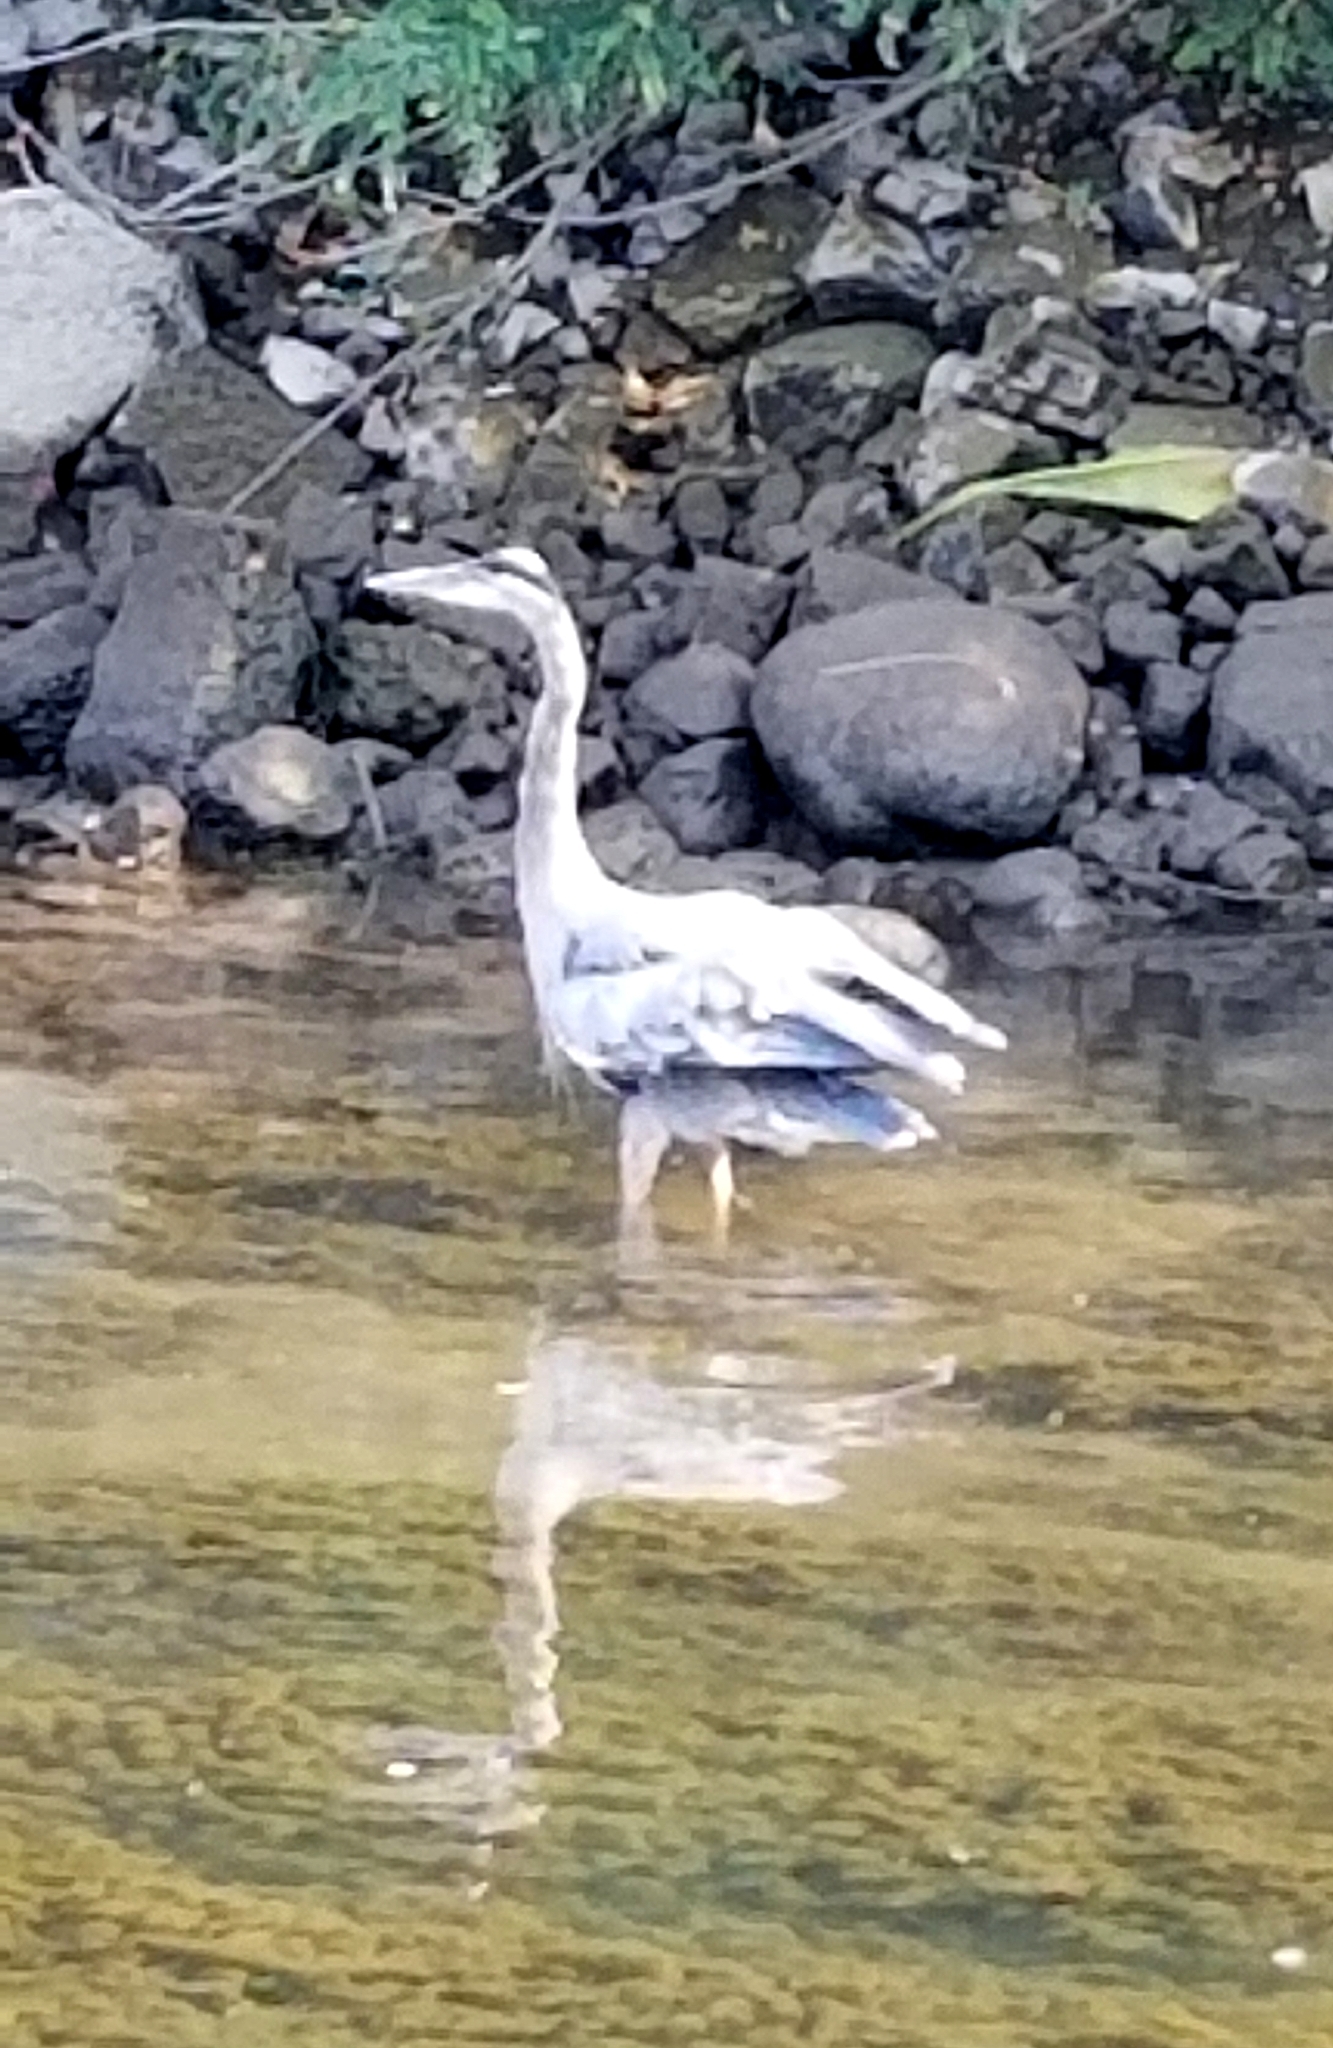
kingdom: Animalia
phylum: Chordata
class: Aves
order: Pelecaniformes
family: Ardeidae
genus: Ardea
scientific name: Ardea herodias
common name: Great blue heron
